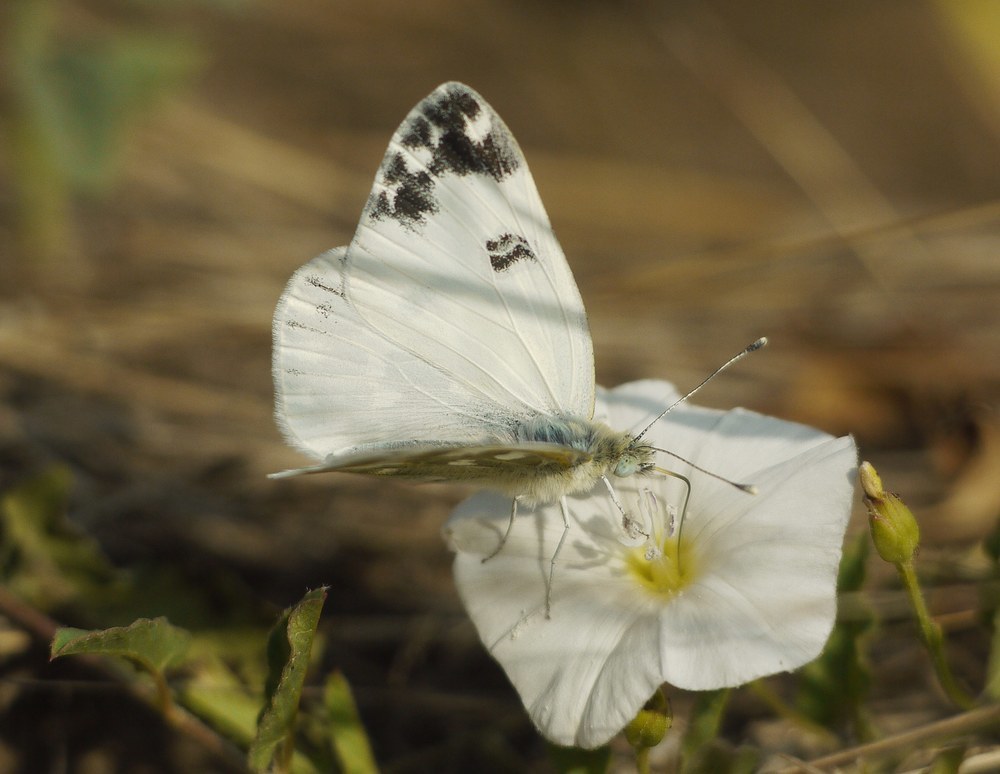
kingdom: Animalia
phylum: Arthropoda
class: Insecta
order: Lepidoptera
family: Pieridae
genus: Pontia
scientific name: Pontia edusa
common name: Eastern bath white
